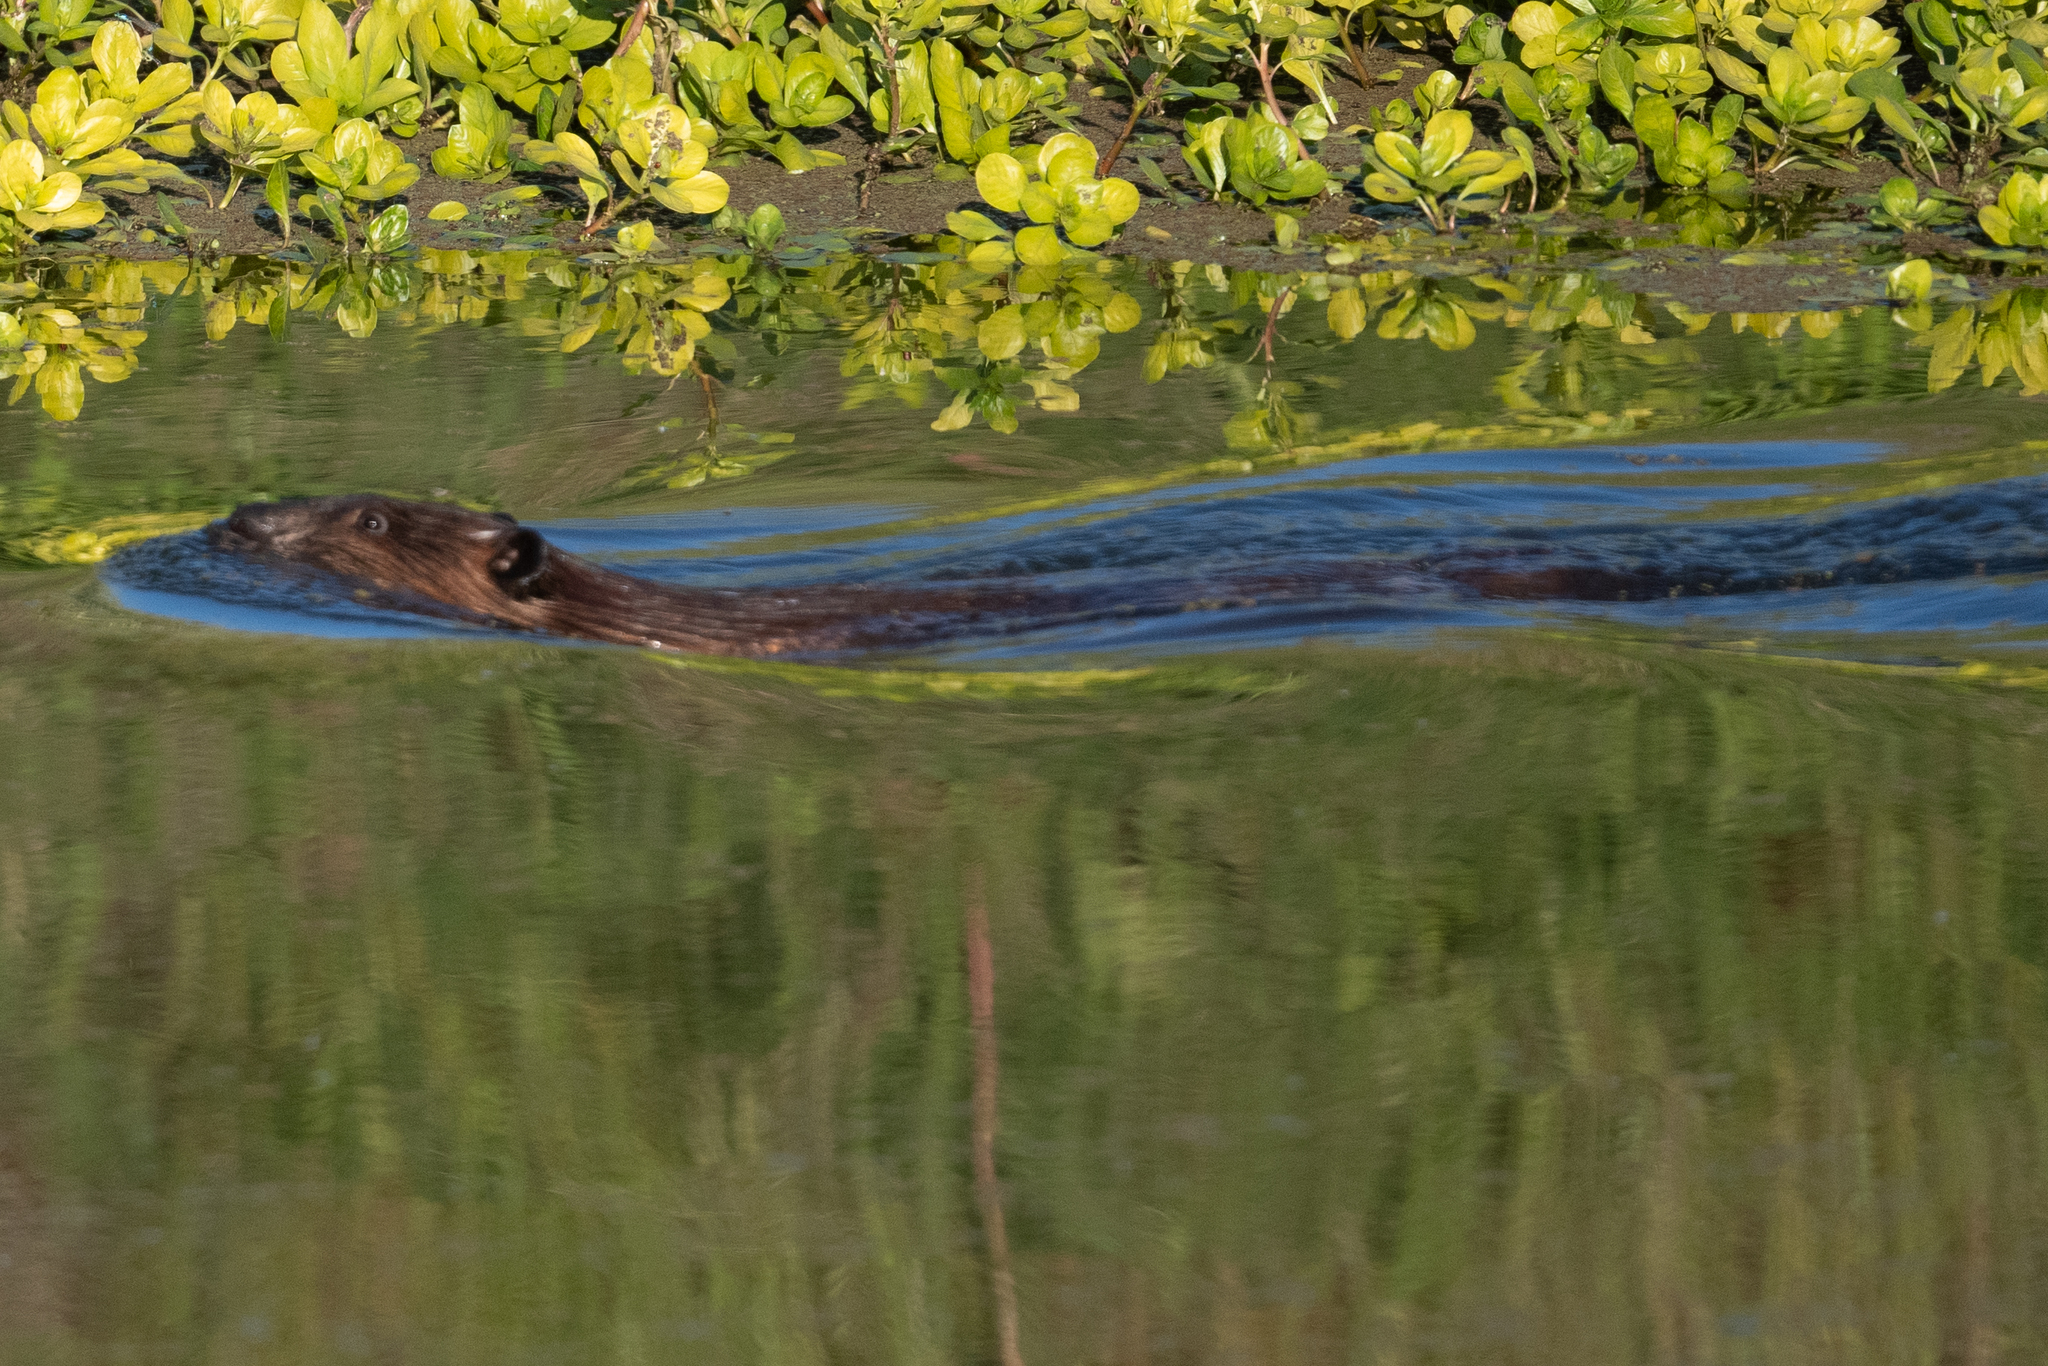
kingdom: Animalia
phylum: Chordata
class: Mammalia
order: Rodentia
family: Castoridae
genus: Castor
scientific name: Castor canadensis
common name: American beaver
